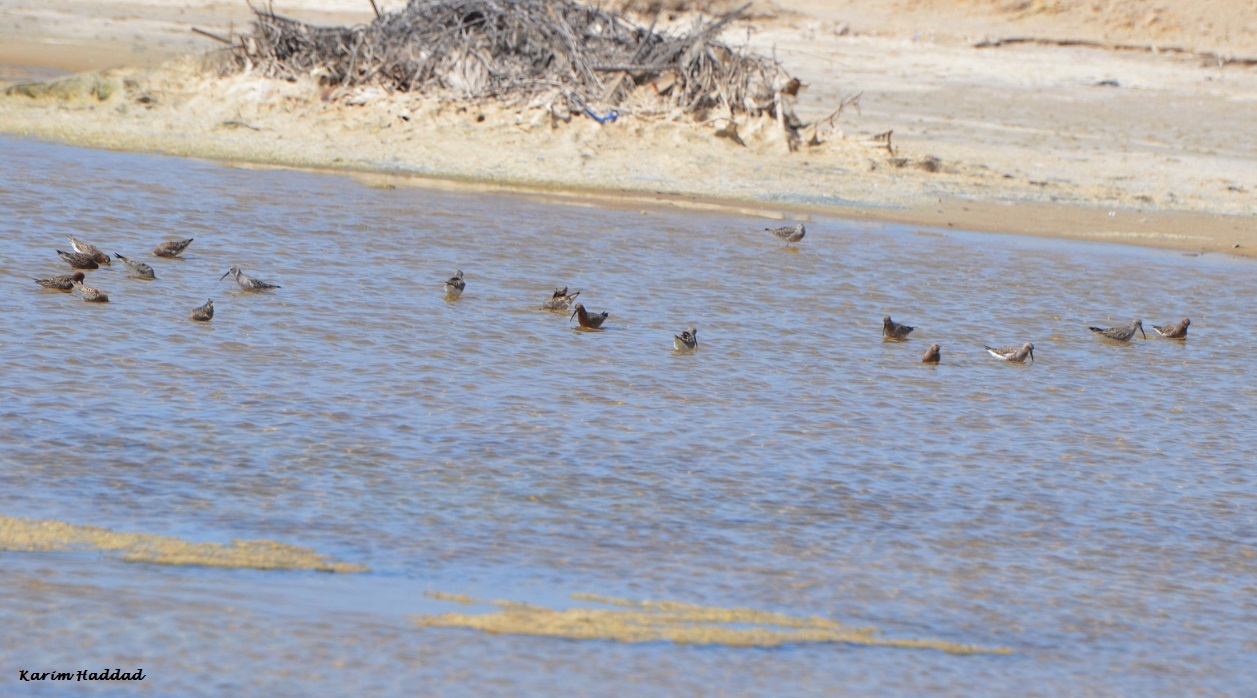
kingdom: Animalia
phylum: Chordata
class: Aves
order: Charadriiformes
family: Scolopacidae
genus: Calidris
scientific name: Calidris ferruginea
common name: Curlew sandpiper
